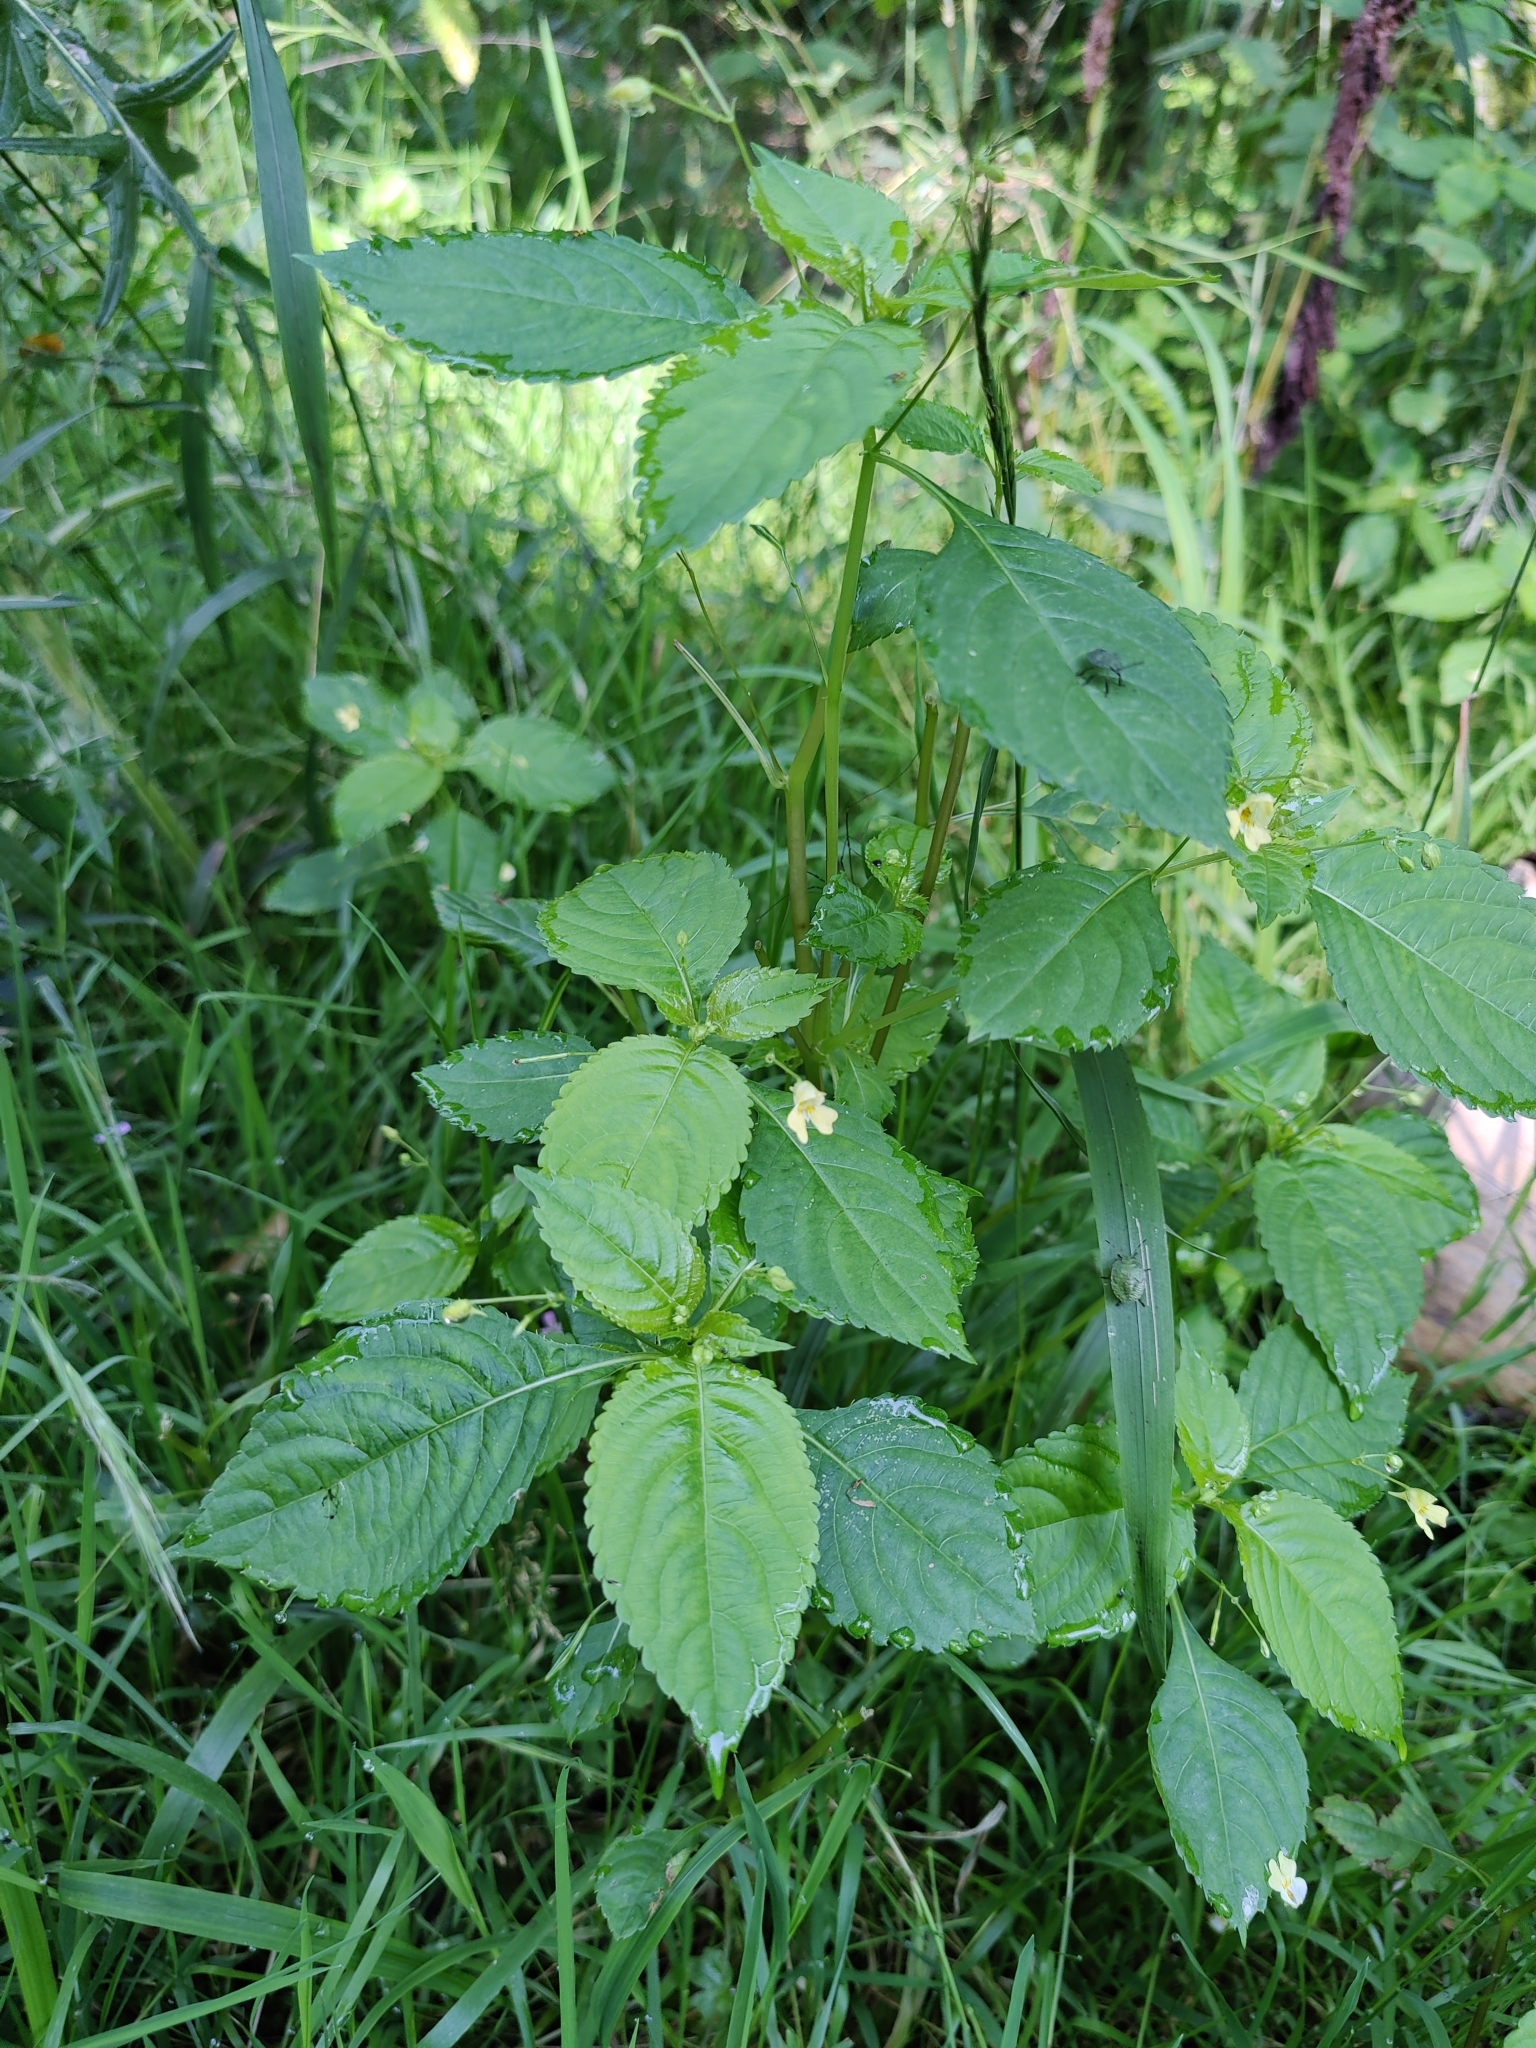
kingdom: Plantae
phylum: Tracheophyta
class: Magnoliopsida
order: Ericales
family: Balsaminaceae
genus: Impatiens
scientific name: Impatiens parviflora
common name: Small balsam
